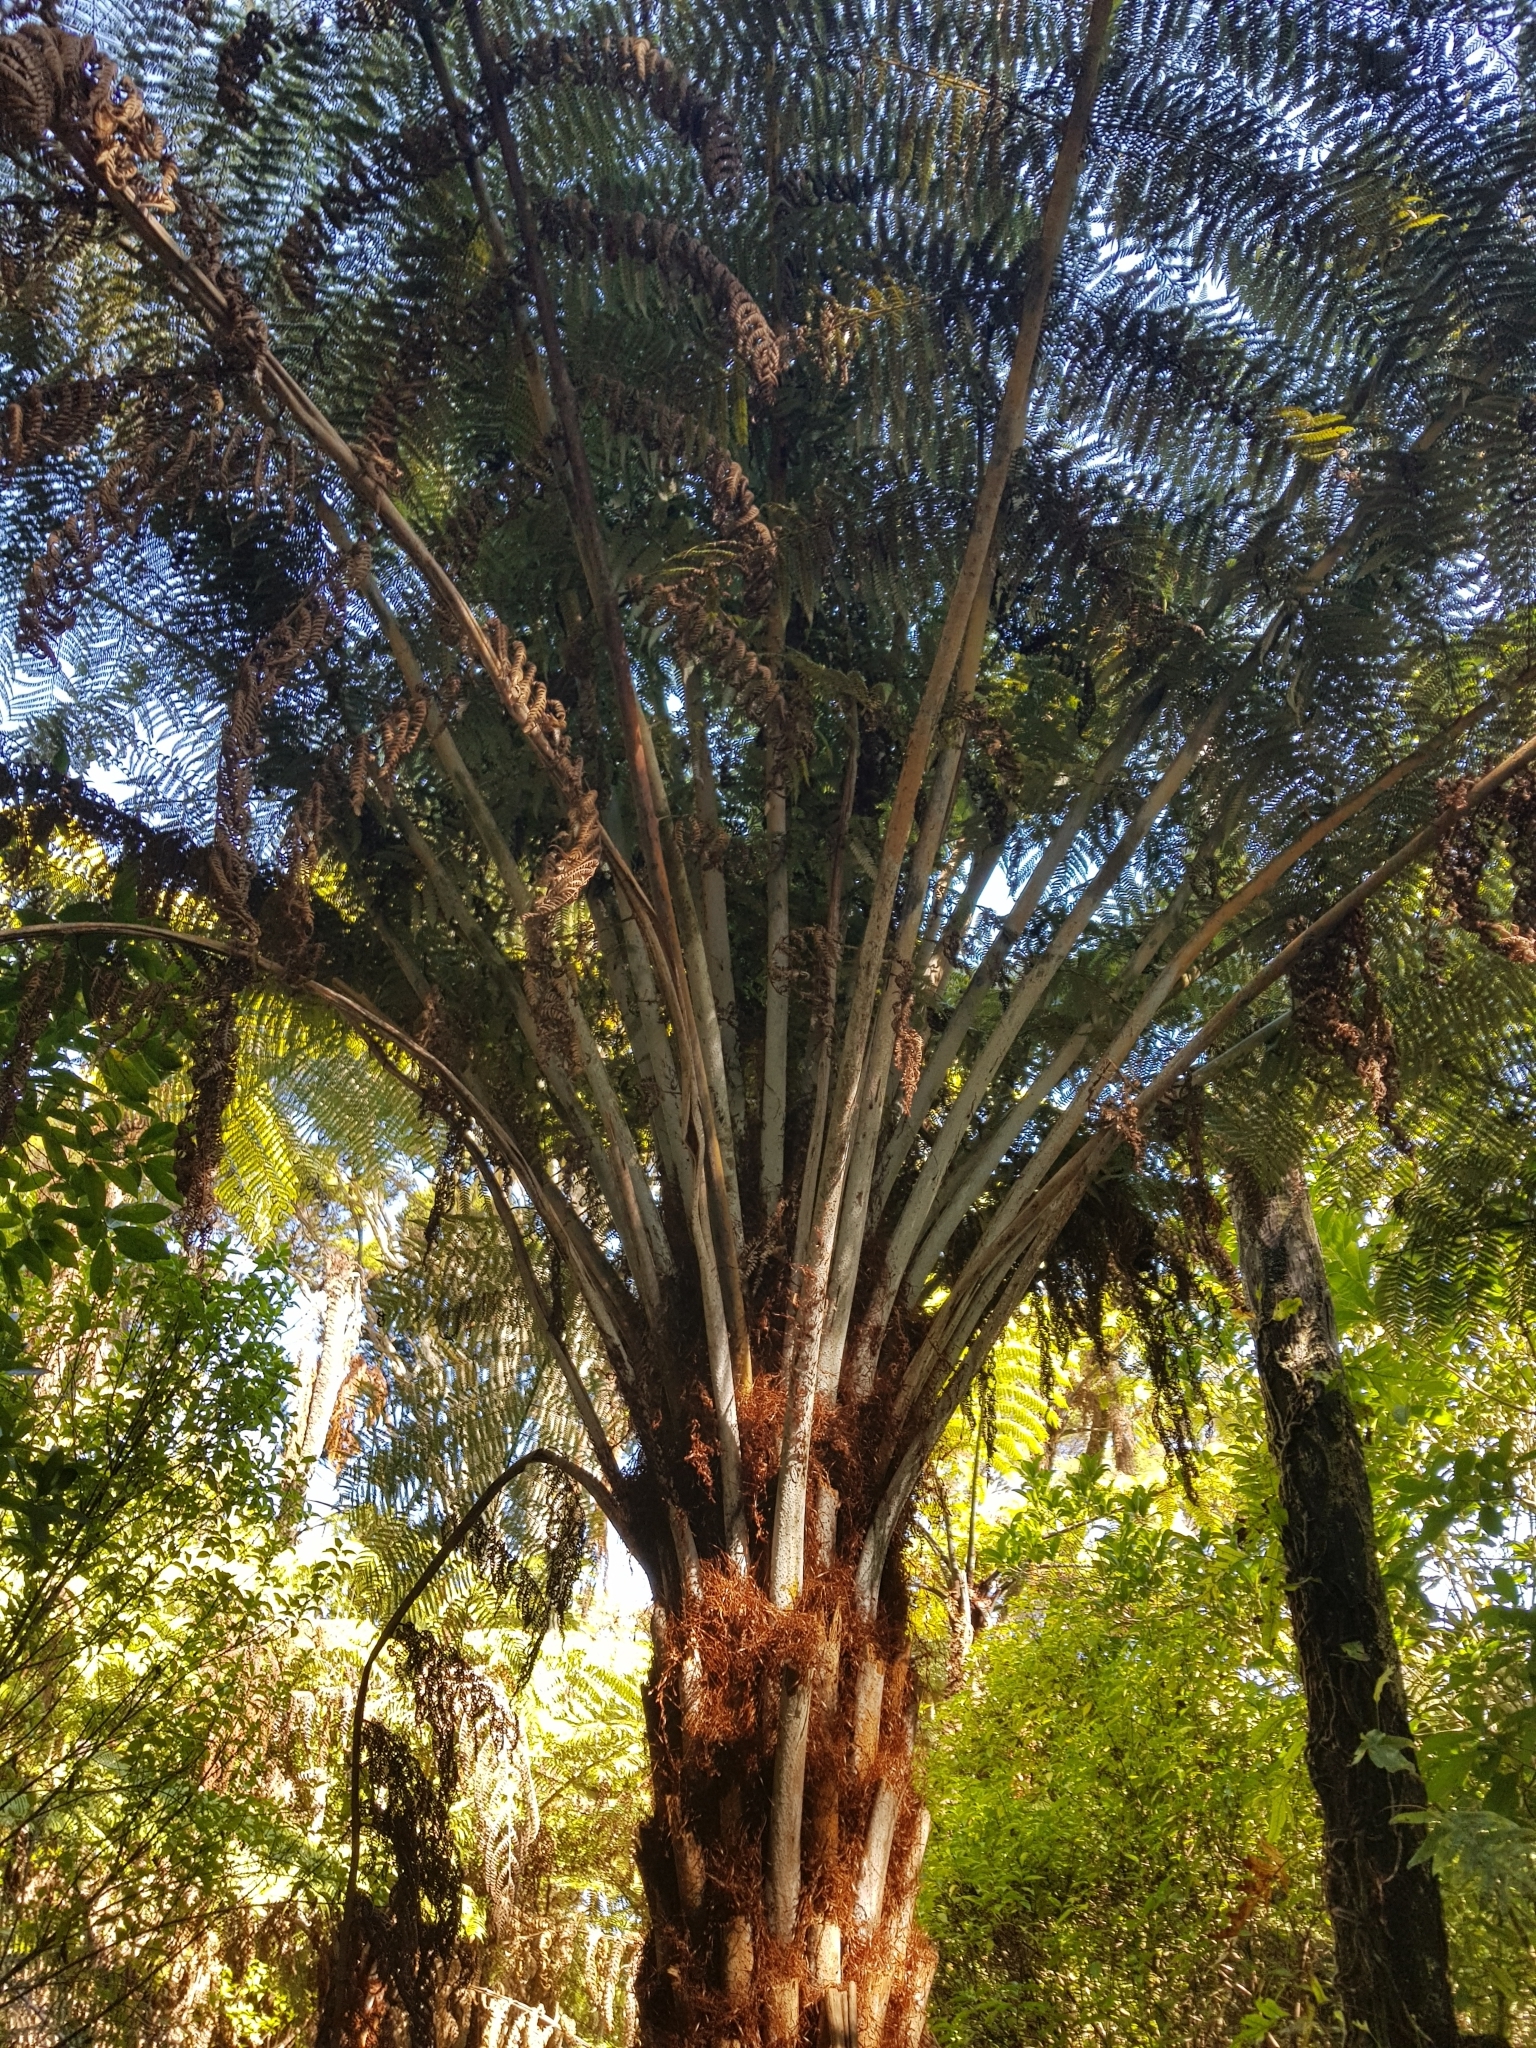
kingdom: Plantae
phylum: Tracheophyta
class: Polypodiopsida
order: Cyatheales
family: Cyatheaceae
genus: Alsophila
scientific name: Alsophila dealbata
